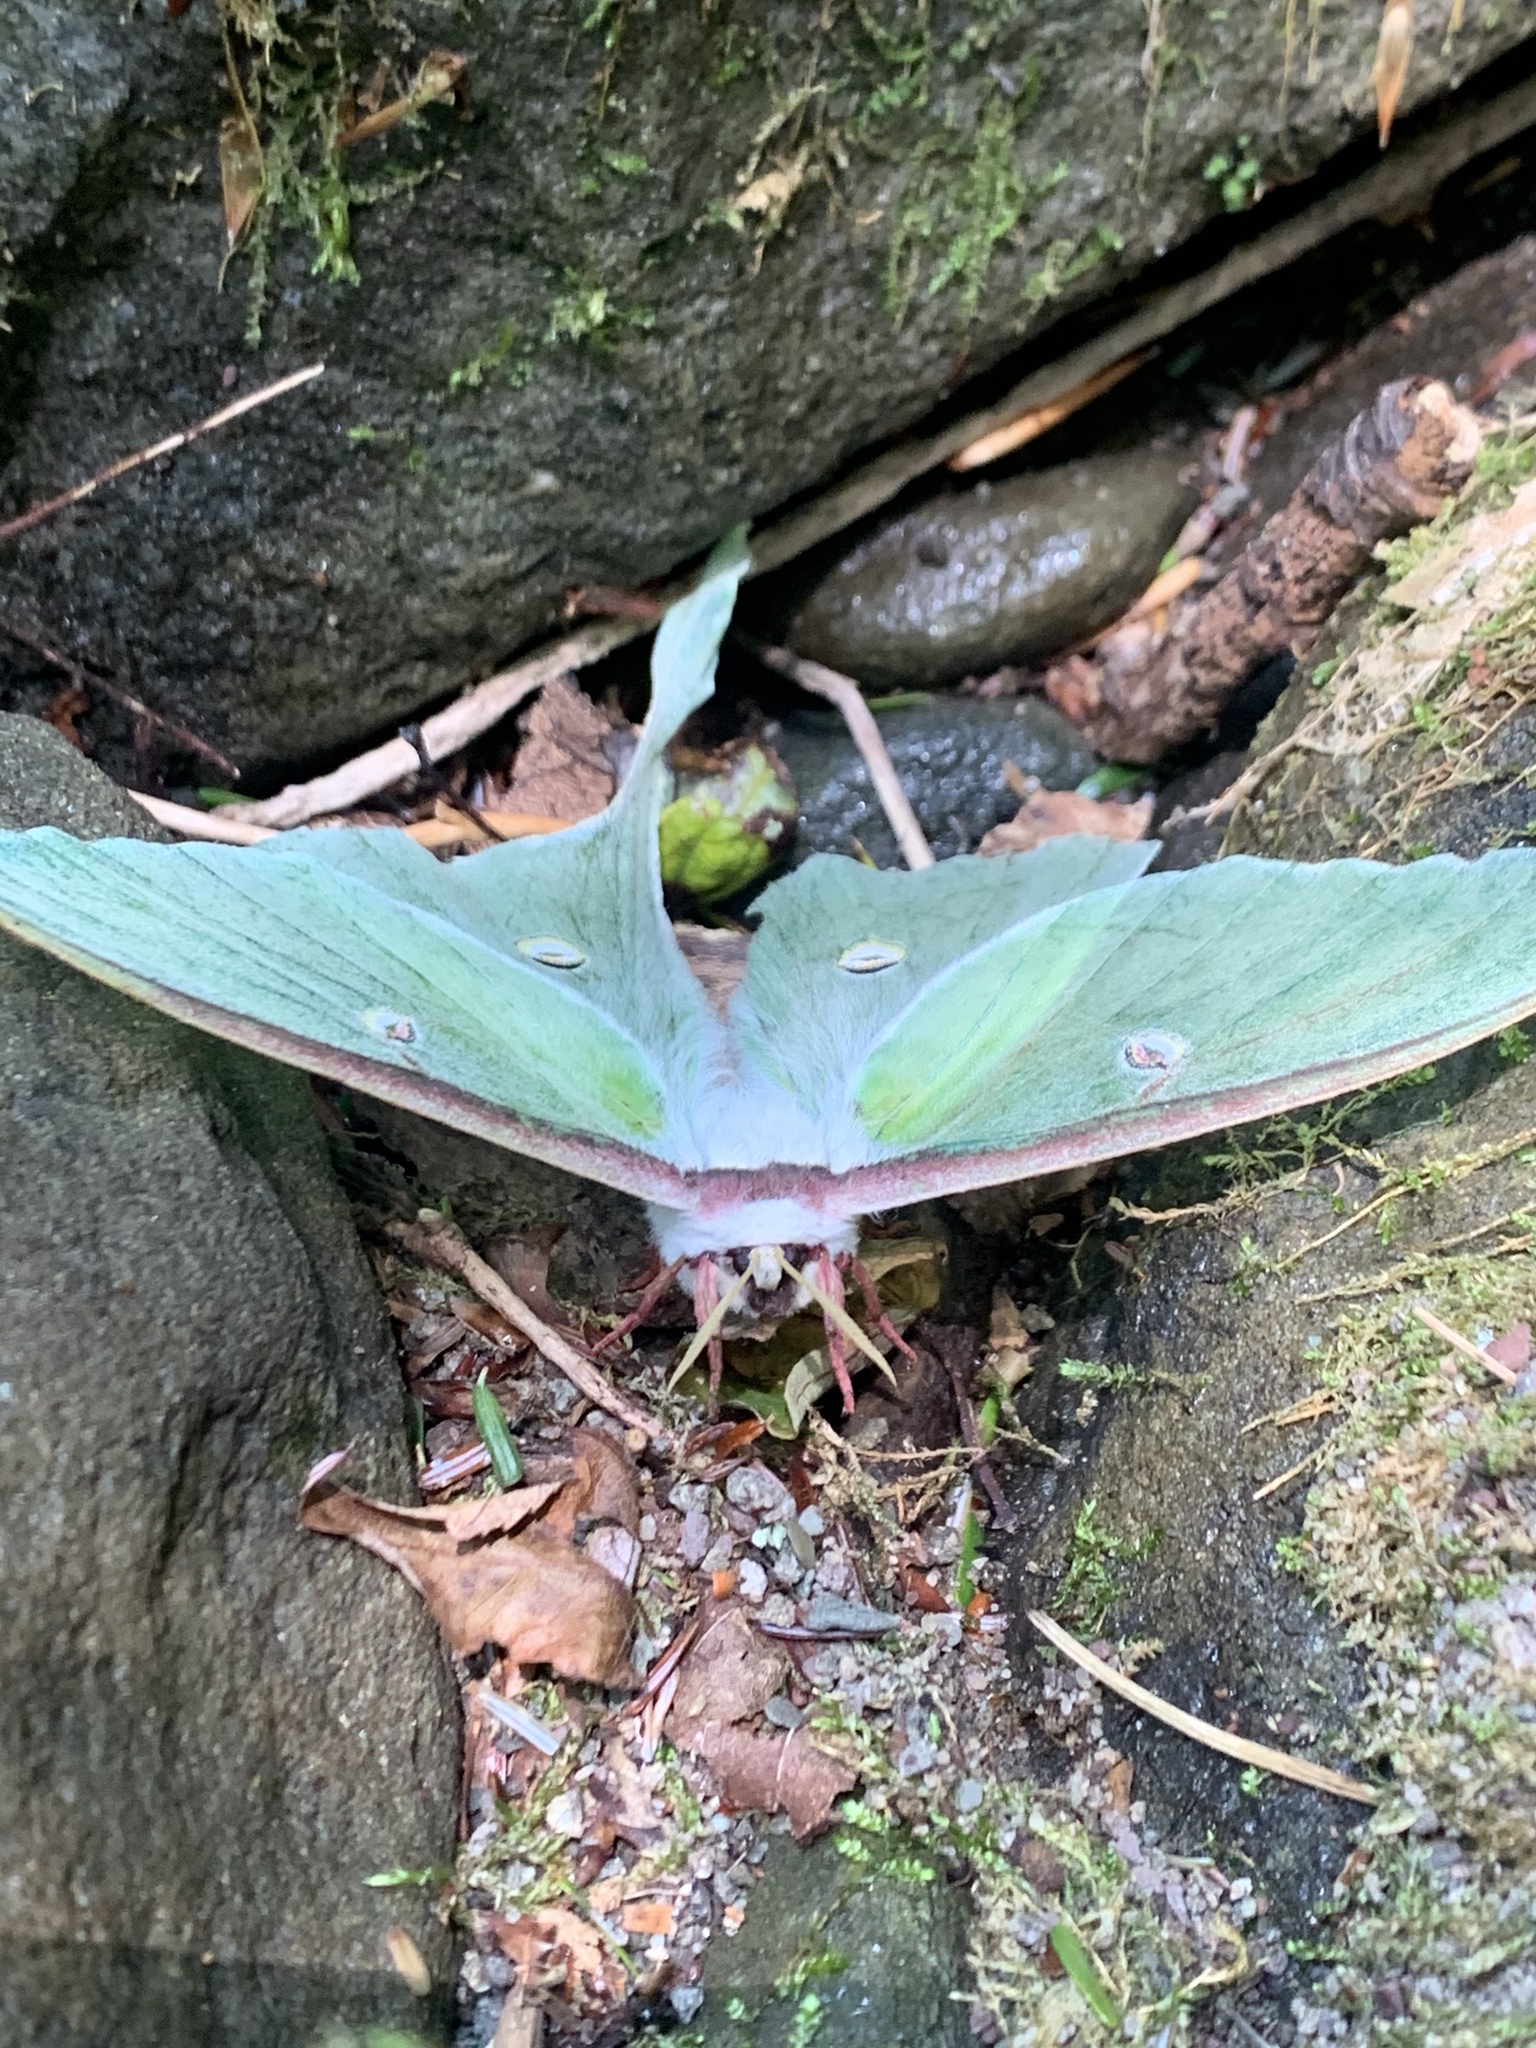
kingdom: Animalia
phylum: Arthropoda
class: Insecta
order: Lepidoptera
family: Saturniidae
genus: Actias
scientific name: Actias luna
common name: Luna moth
